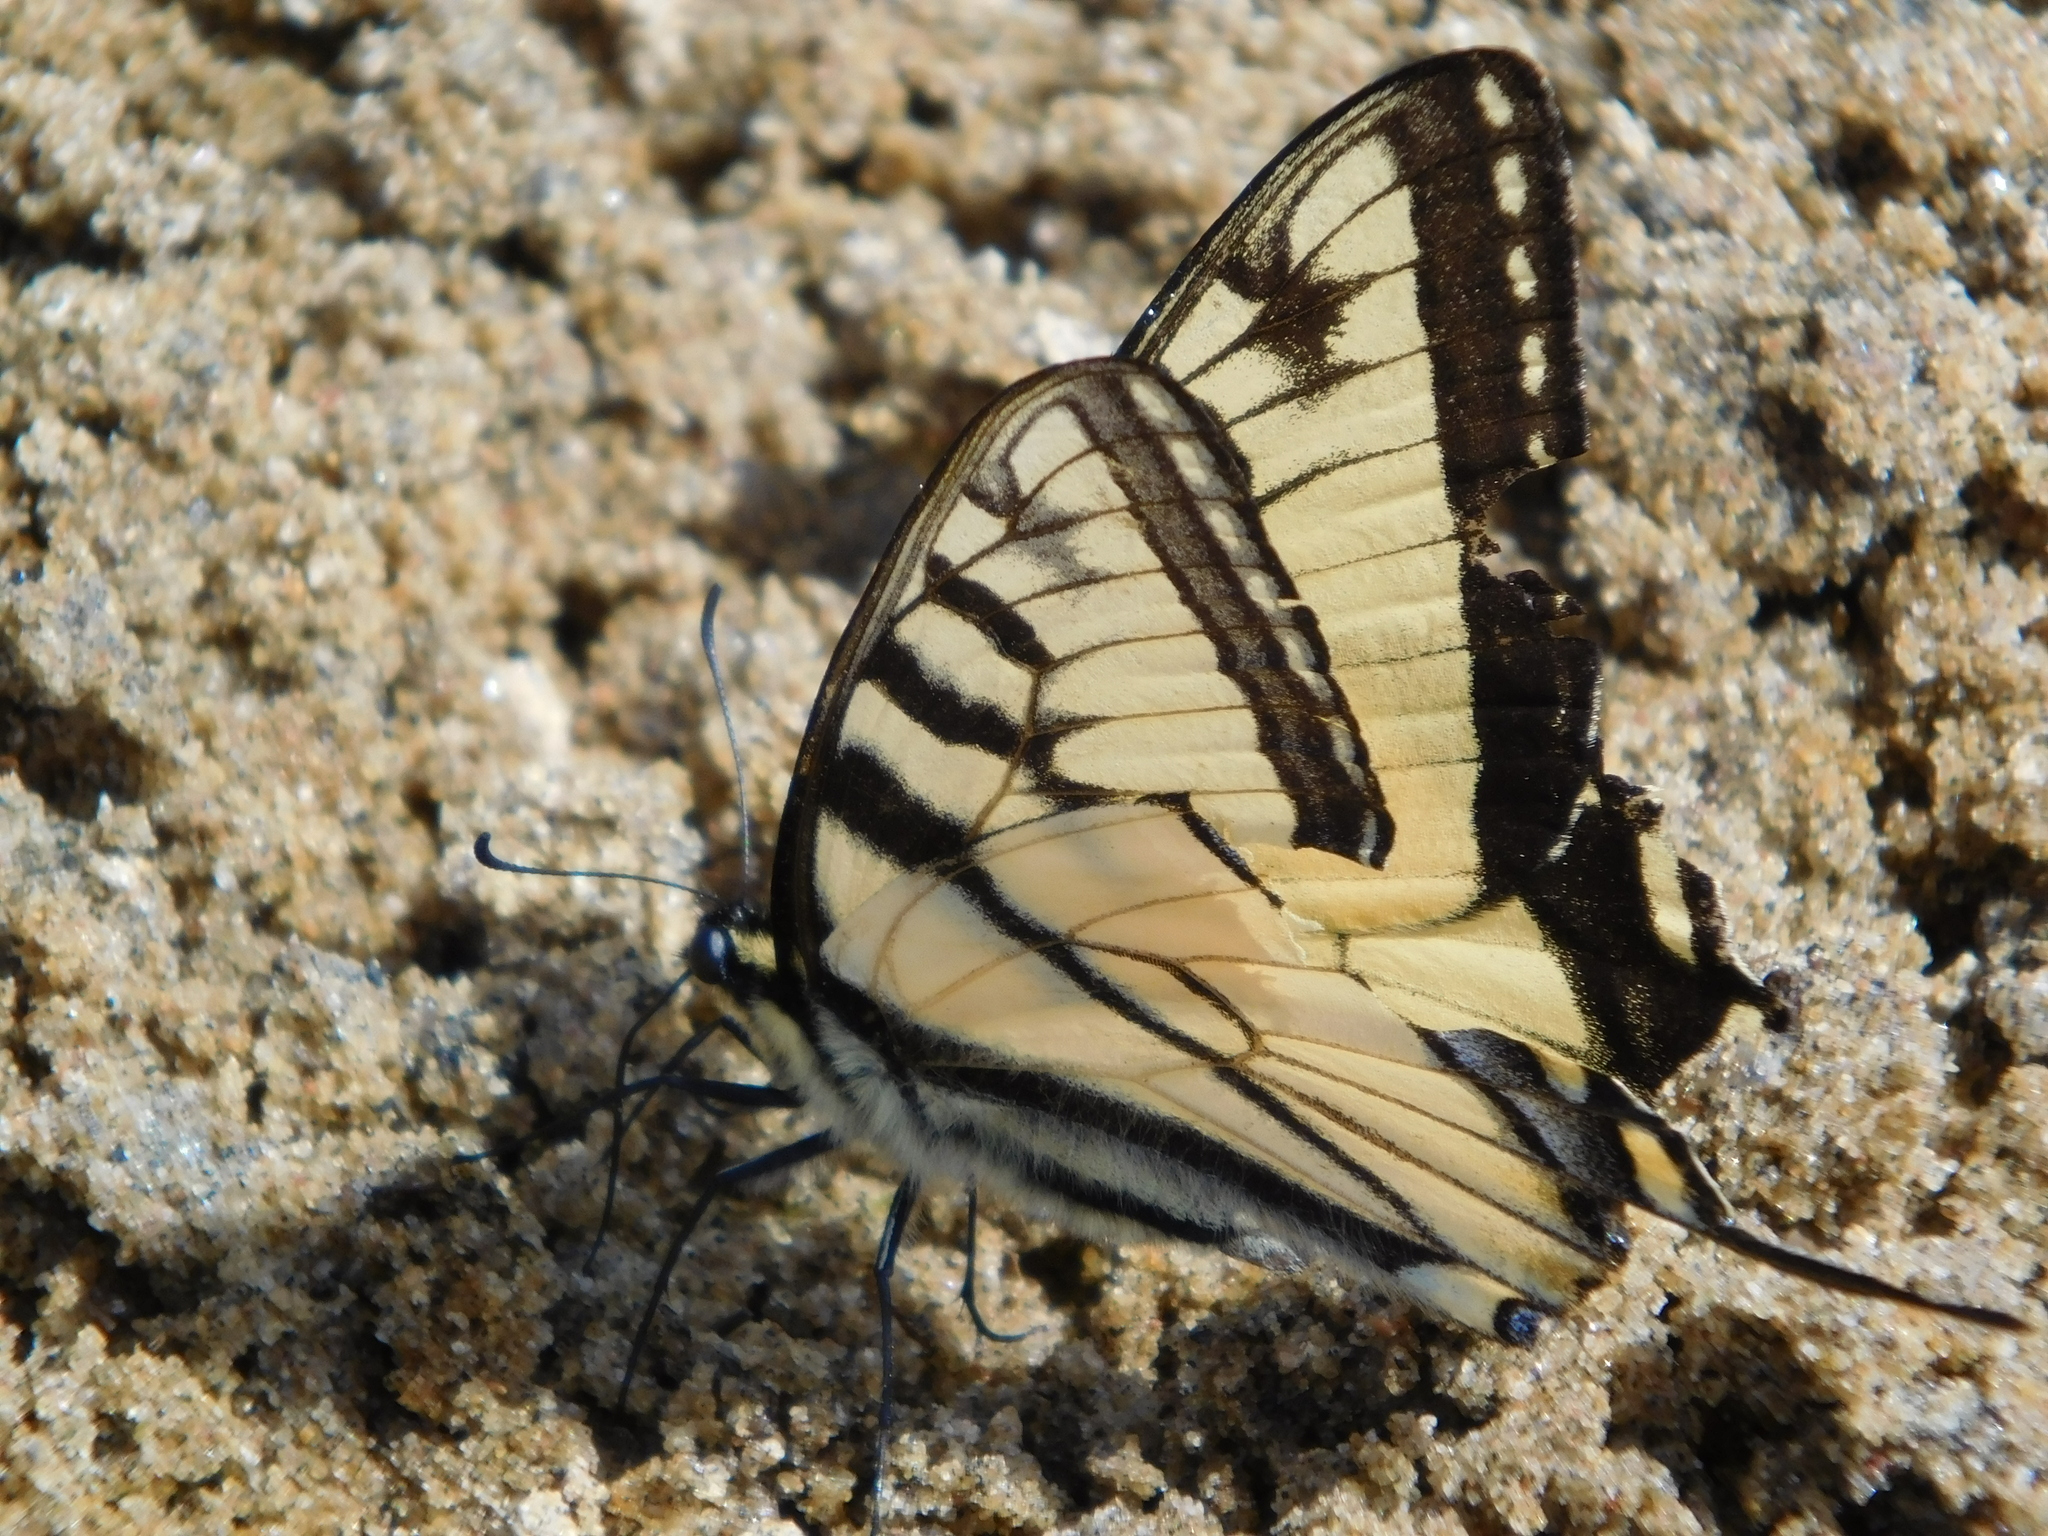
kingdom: Animalia
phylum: Arthropoda
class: Insecta
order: Lepidoptera
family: Papilionidae
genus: Papilio
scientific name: Papilio canadensis
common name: Canadian tiger swallowtail
